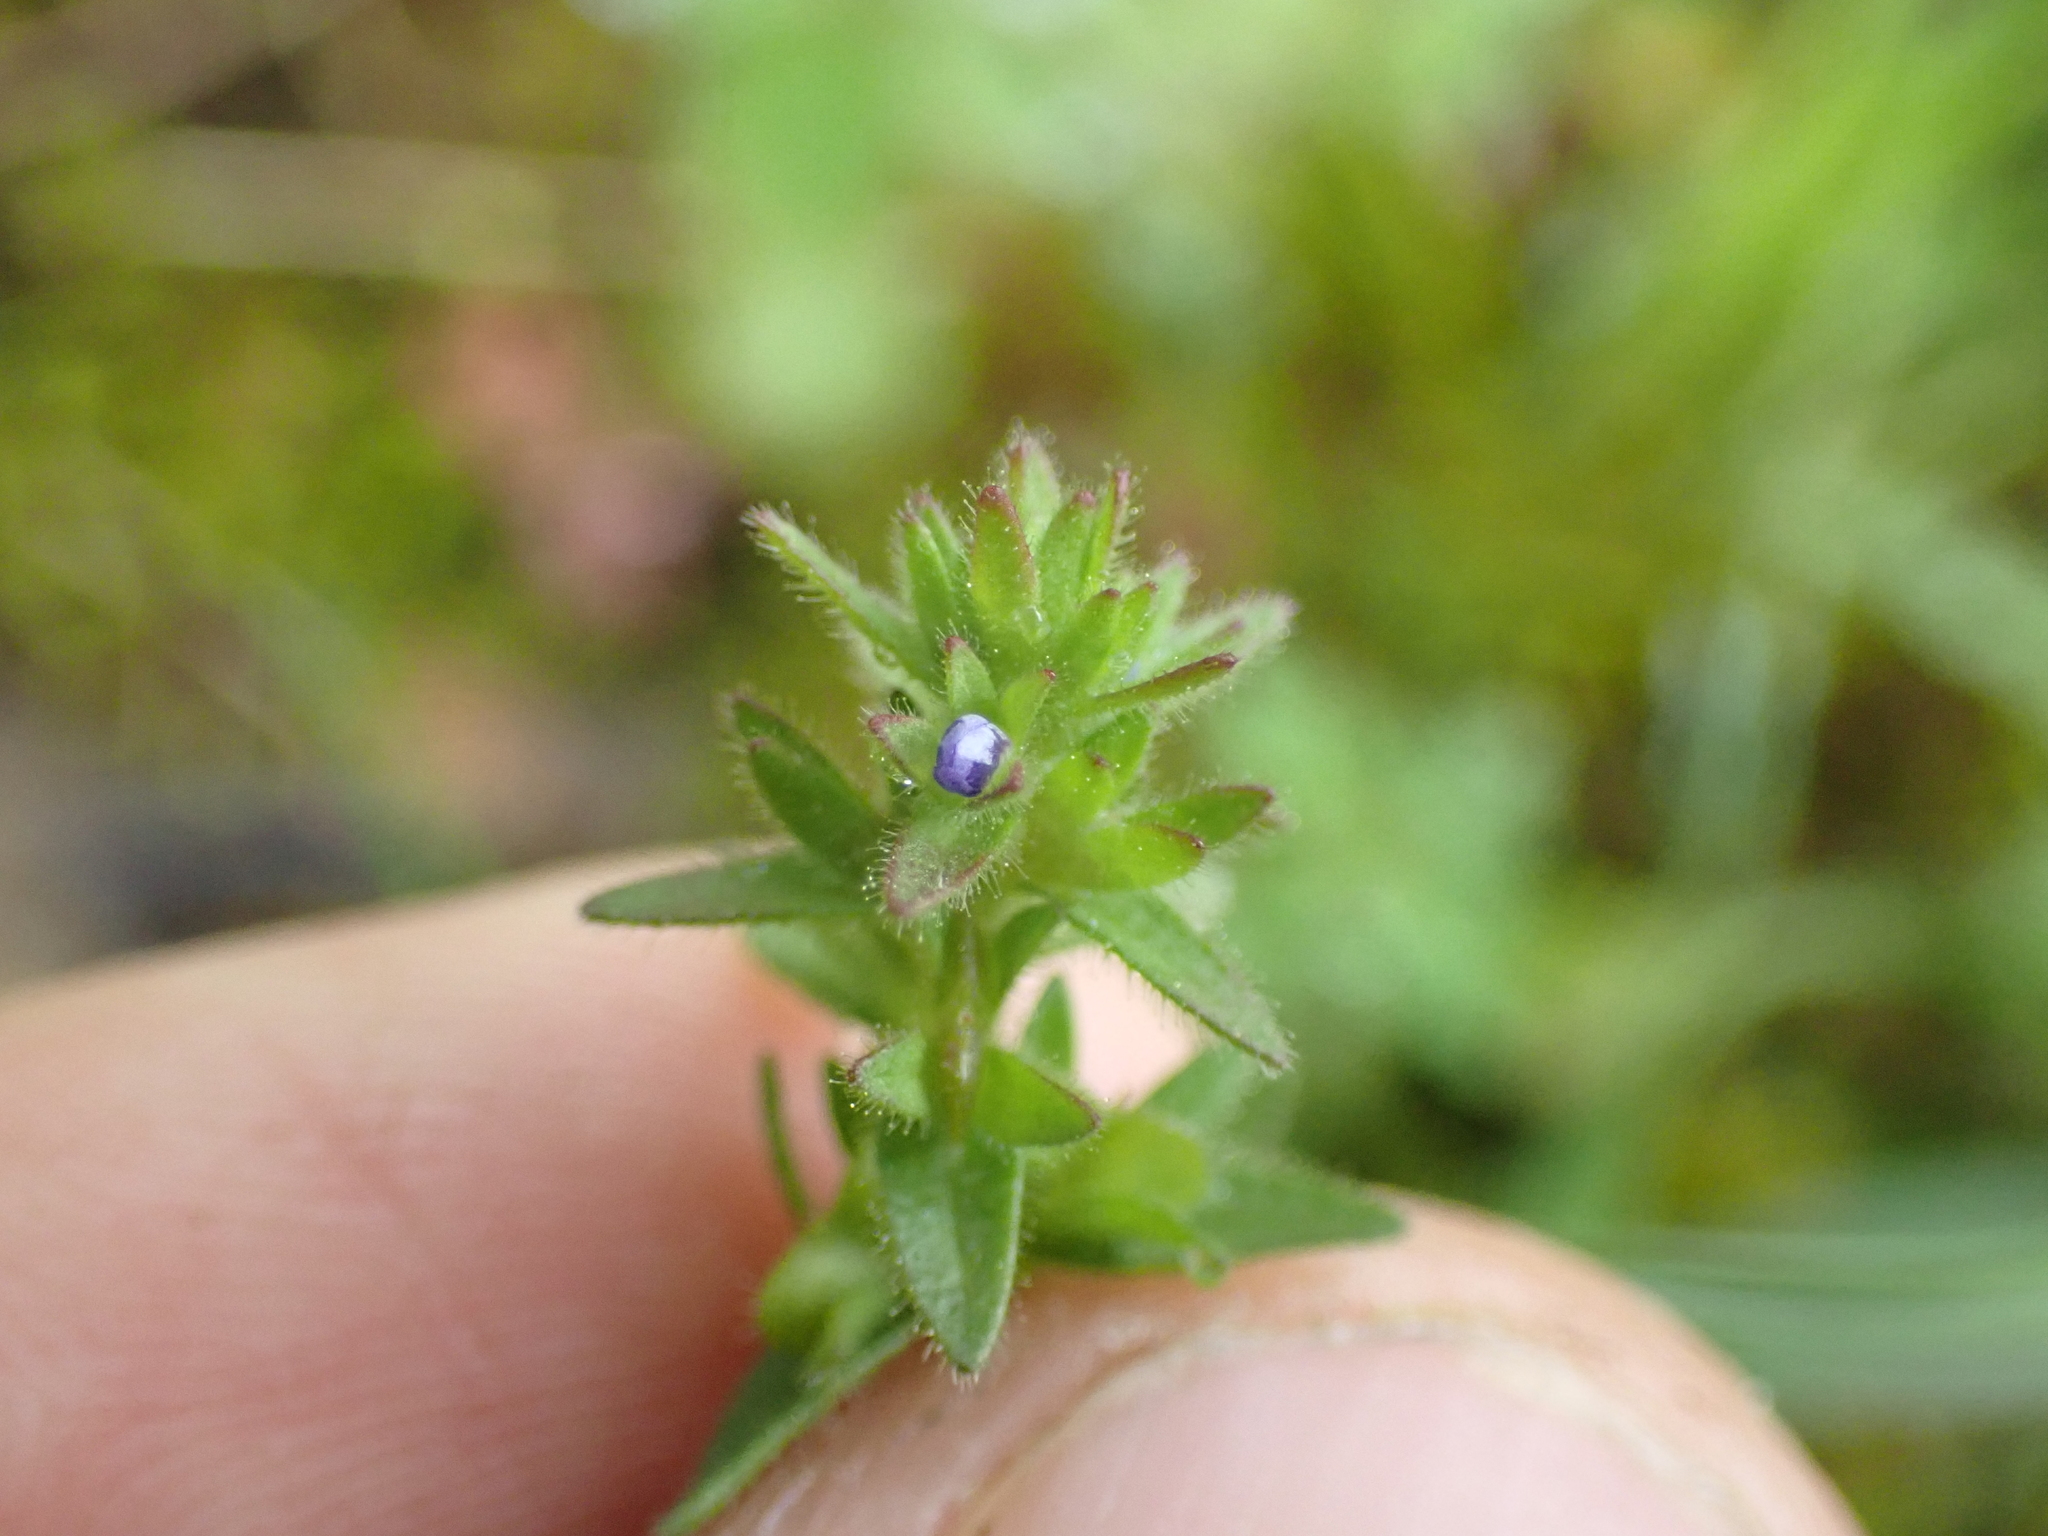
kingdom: Plantae
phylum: Tracheophyta
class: Magnoliopsida
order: Lamiales
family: Plantaginaceae
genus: Veronica
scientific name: Veronica arvensis
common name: Corn speedwell
